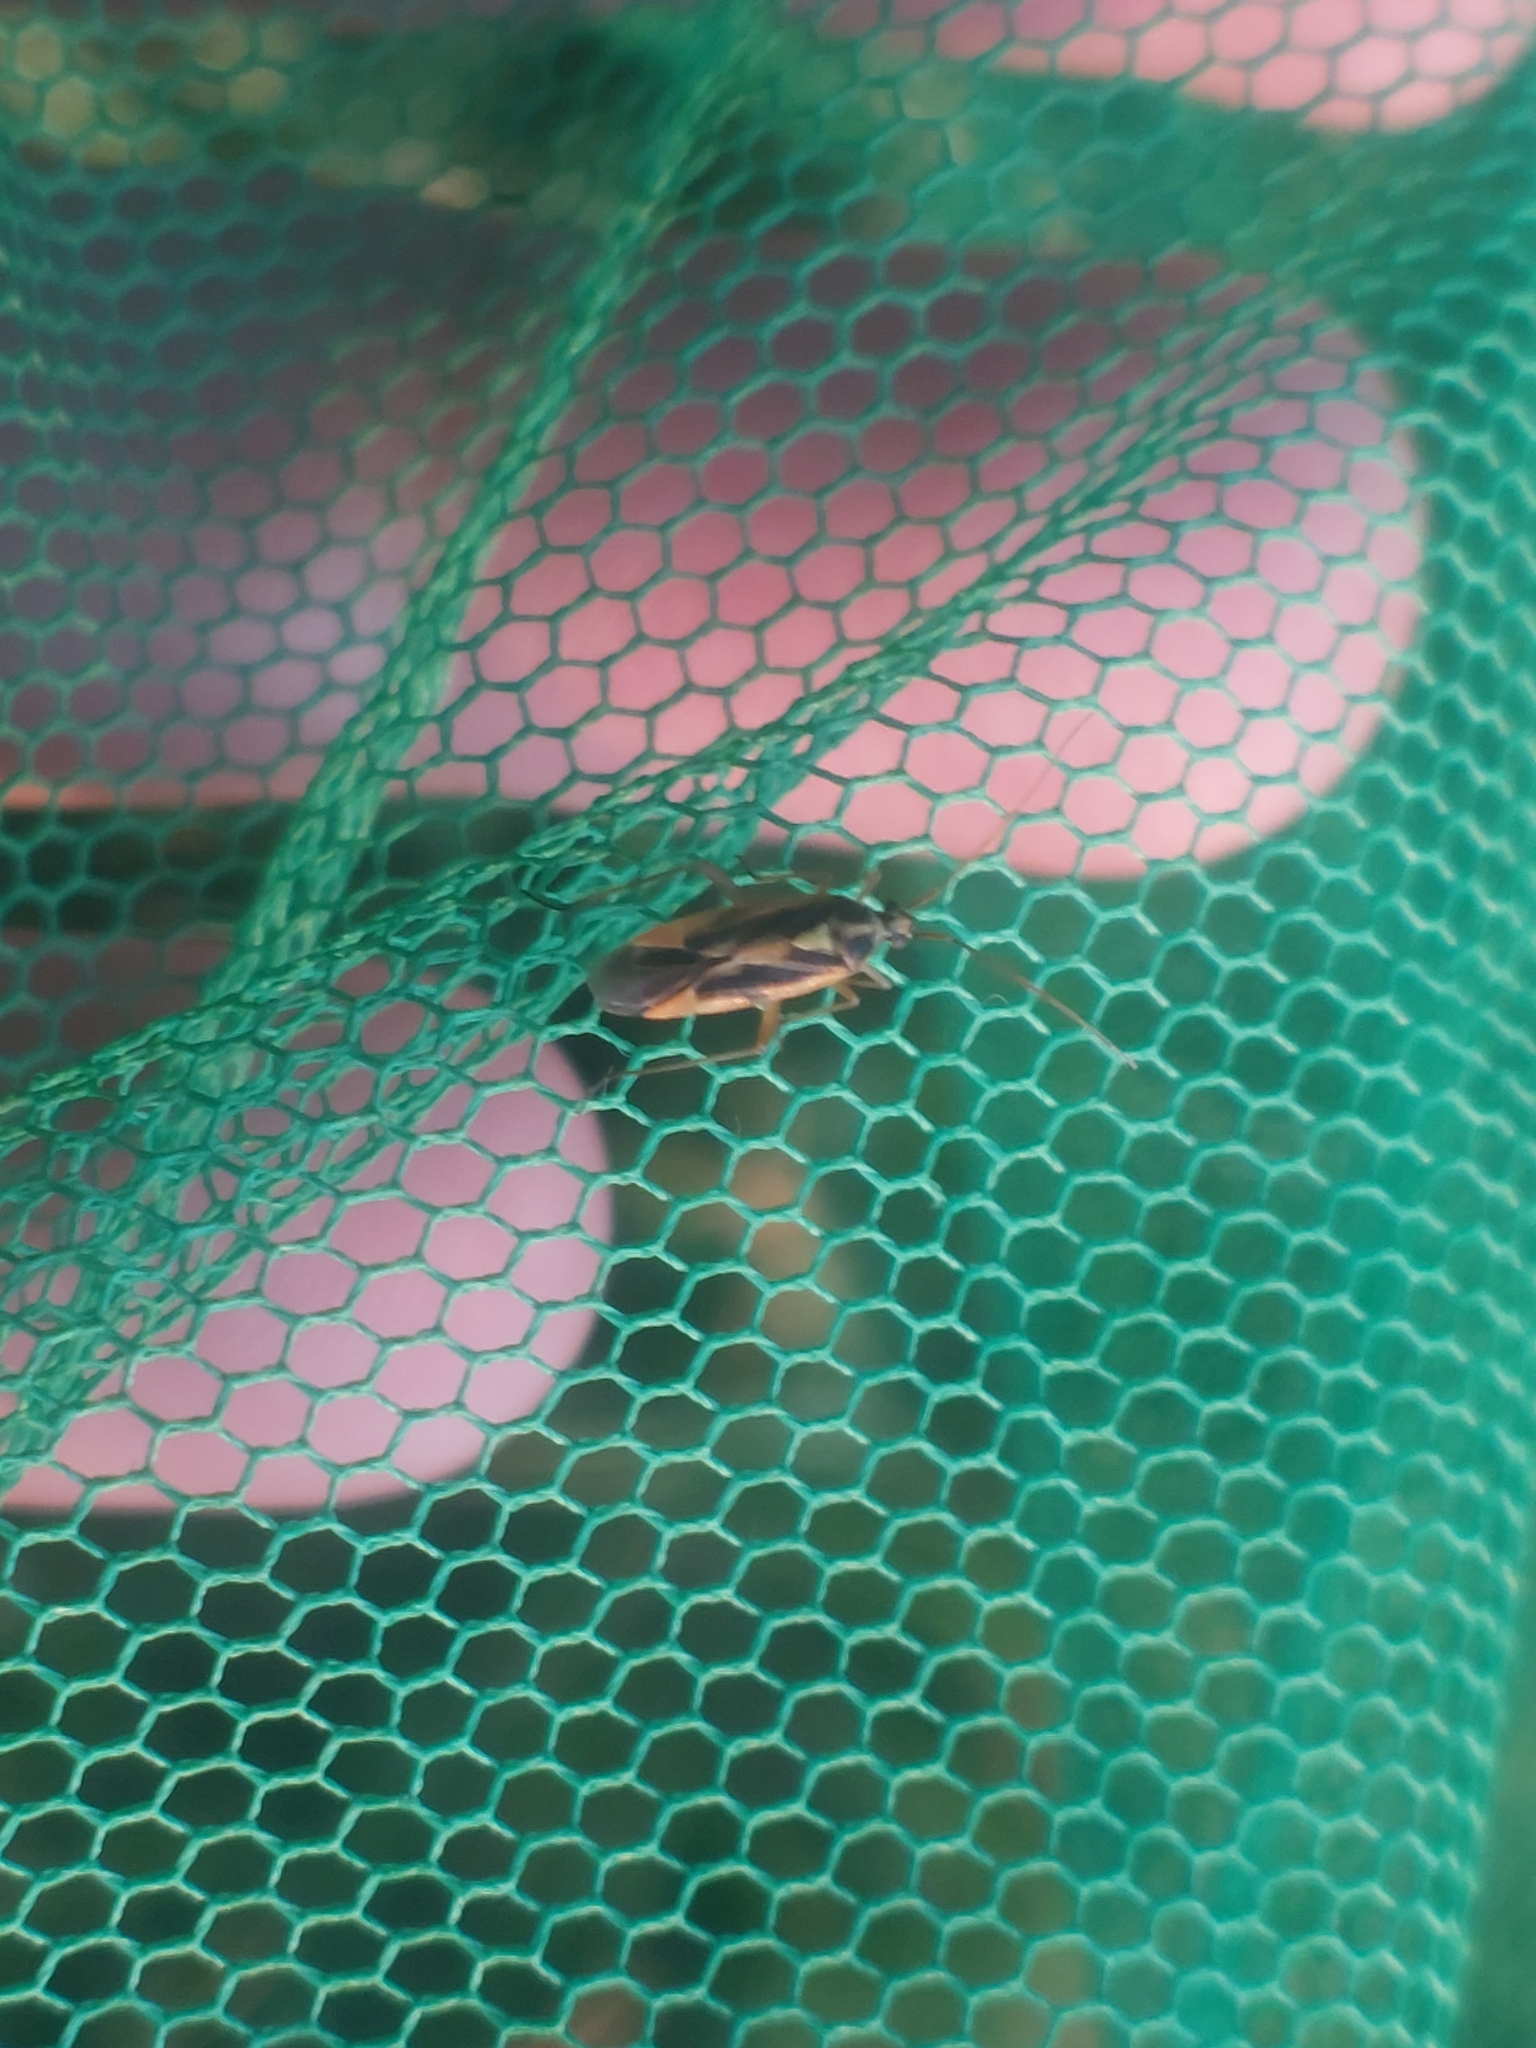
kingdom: Animalia
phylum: Arthropoda
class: Insecta
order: Hemiptera
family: Miridae
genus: Stenotus
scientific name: Stenotus binotatus
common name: Plant bug
